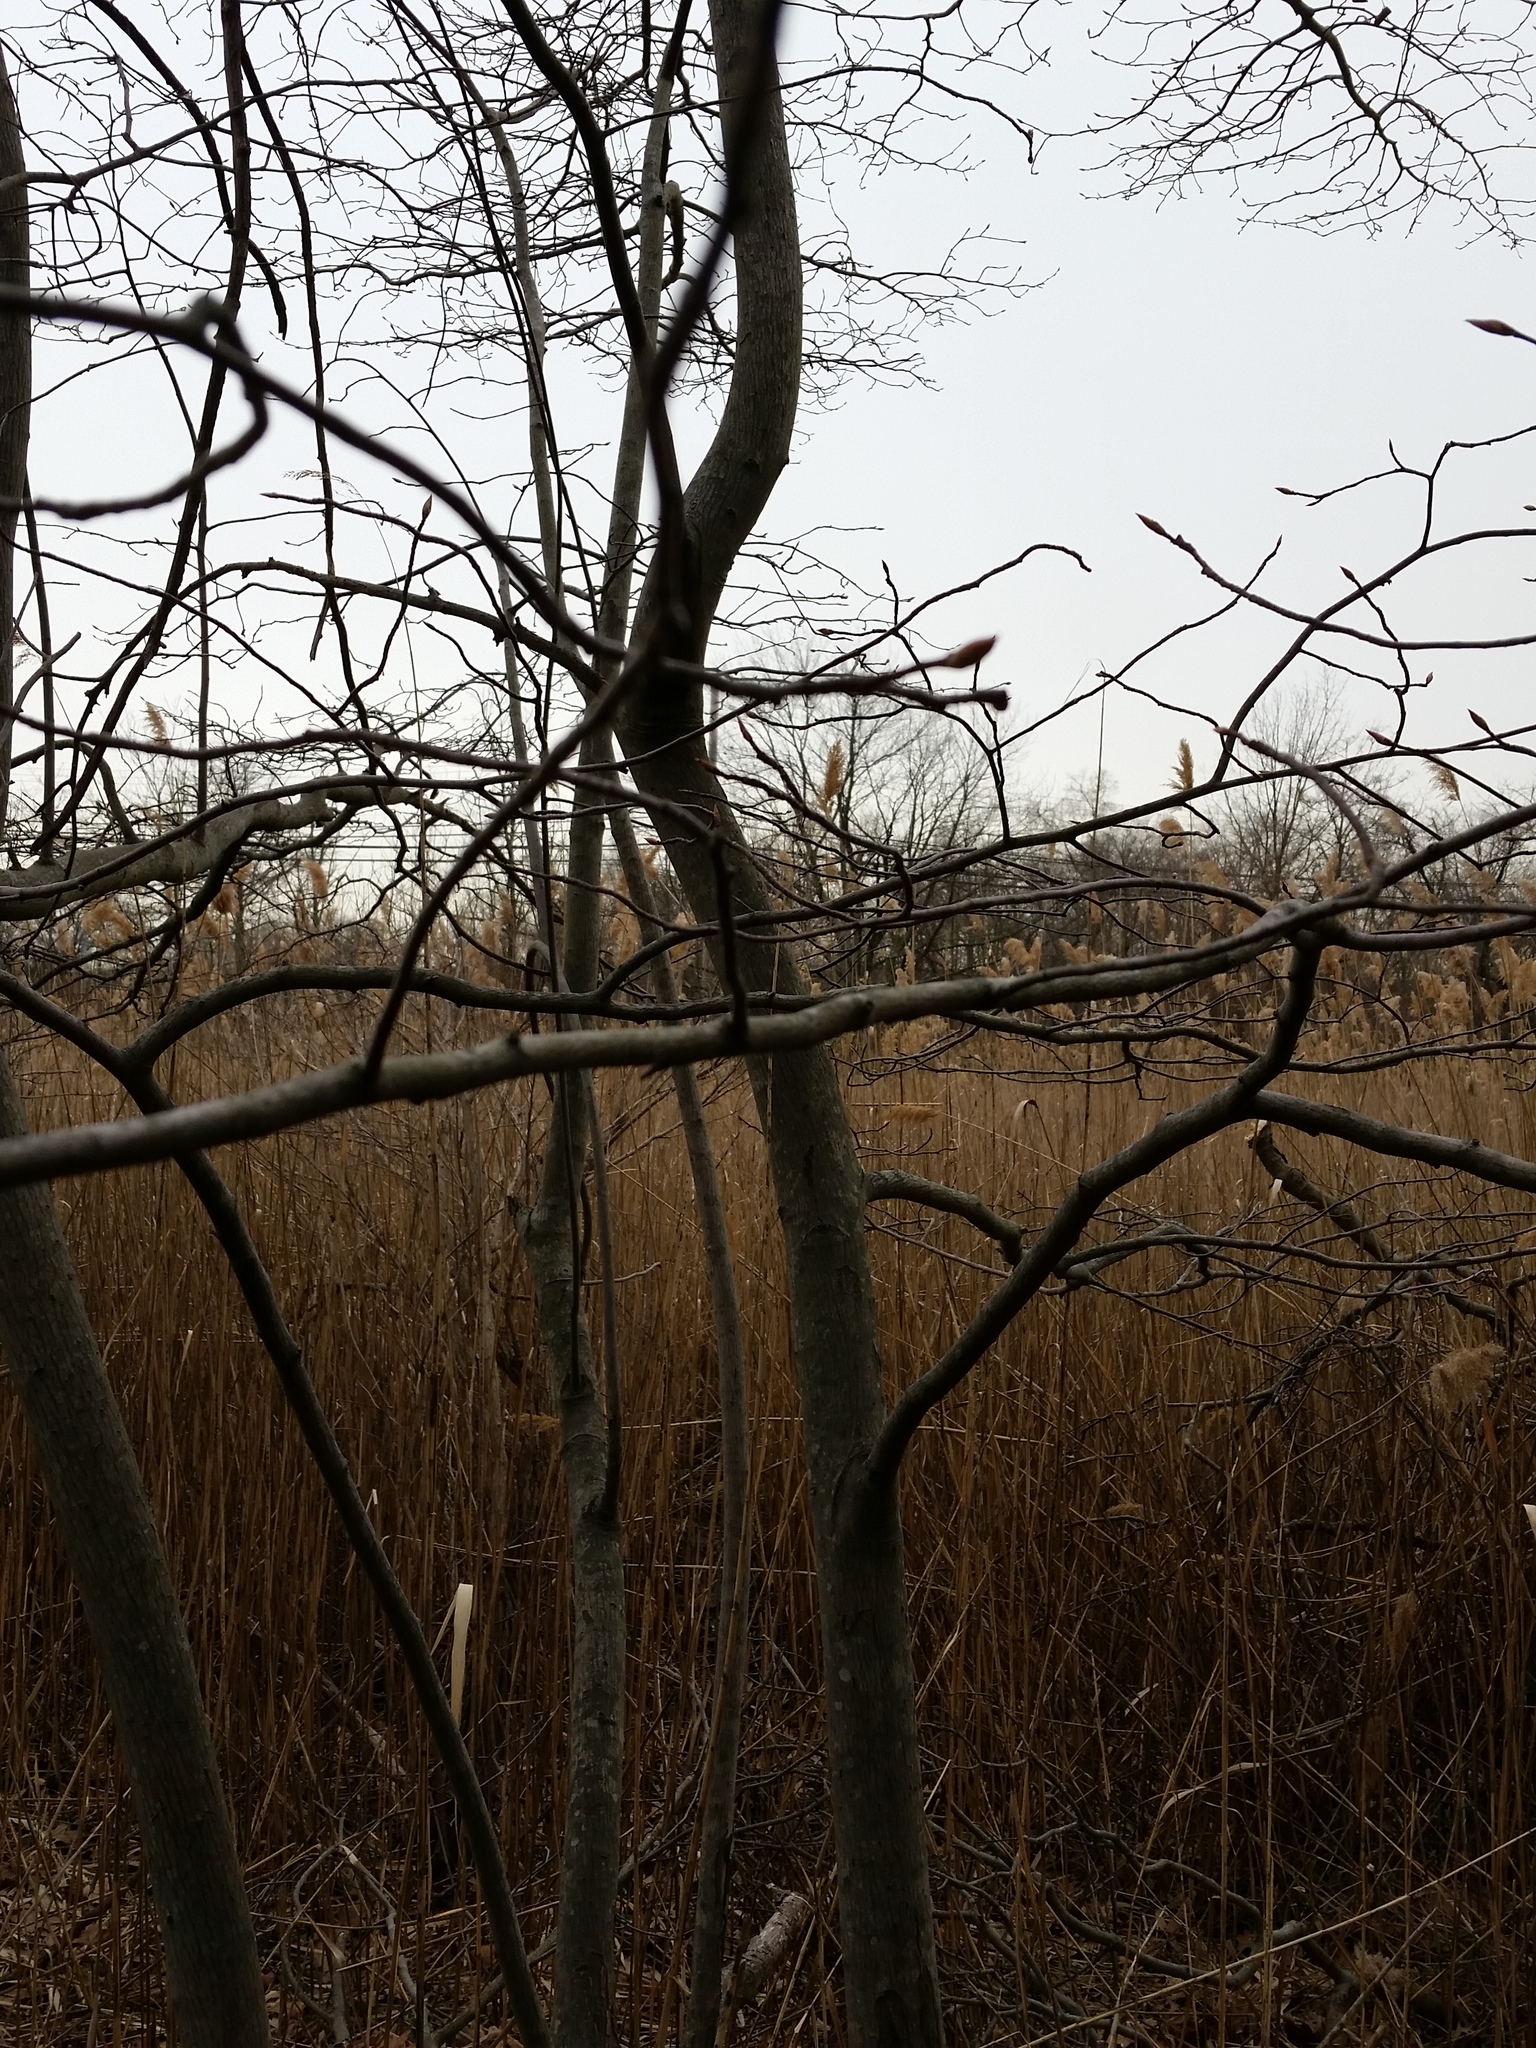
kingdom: Plantae
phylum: Tracheophyta
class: Magnoliopsida
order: Rosales
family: Rosaceae
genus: Amelanchier
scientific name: Amelanchier canadensis
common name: Thicket serviceberry
